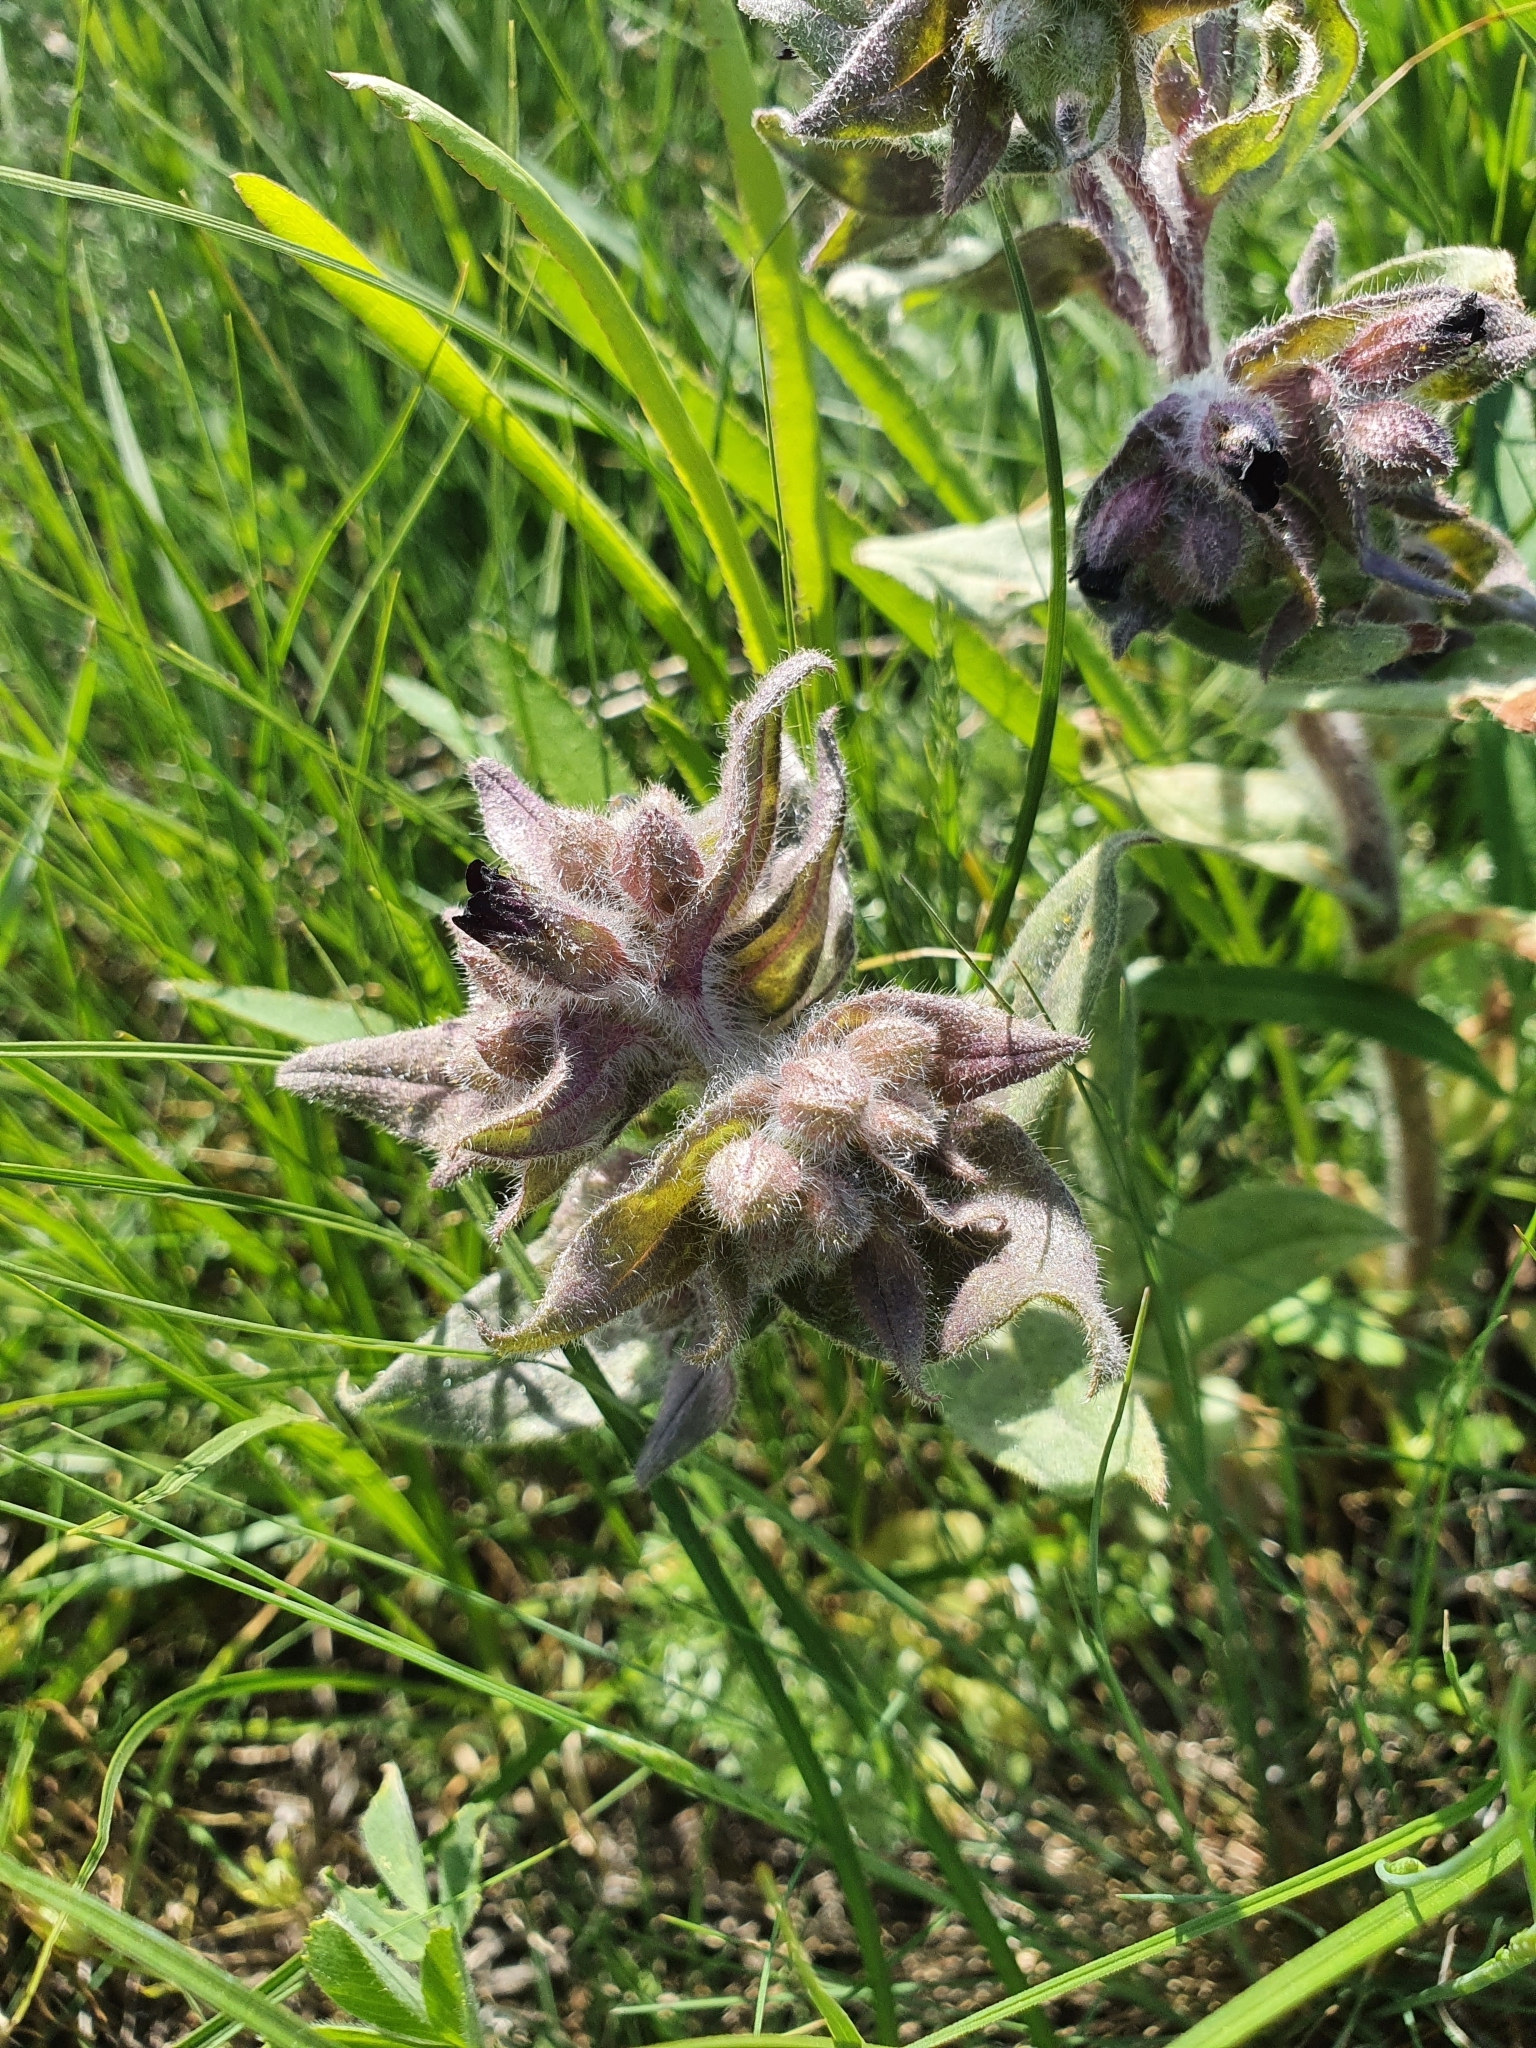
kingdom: Plantae
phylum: Tracheophyta
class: Magnoliopsida
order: Boraginales
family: Boraginaceae
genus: Nonea
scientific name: Nonea pulla
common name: Brown nonea
